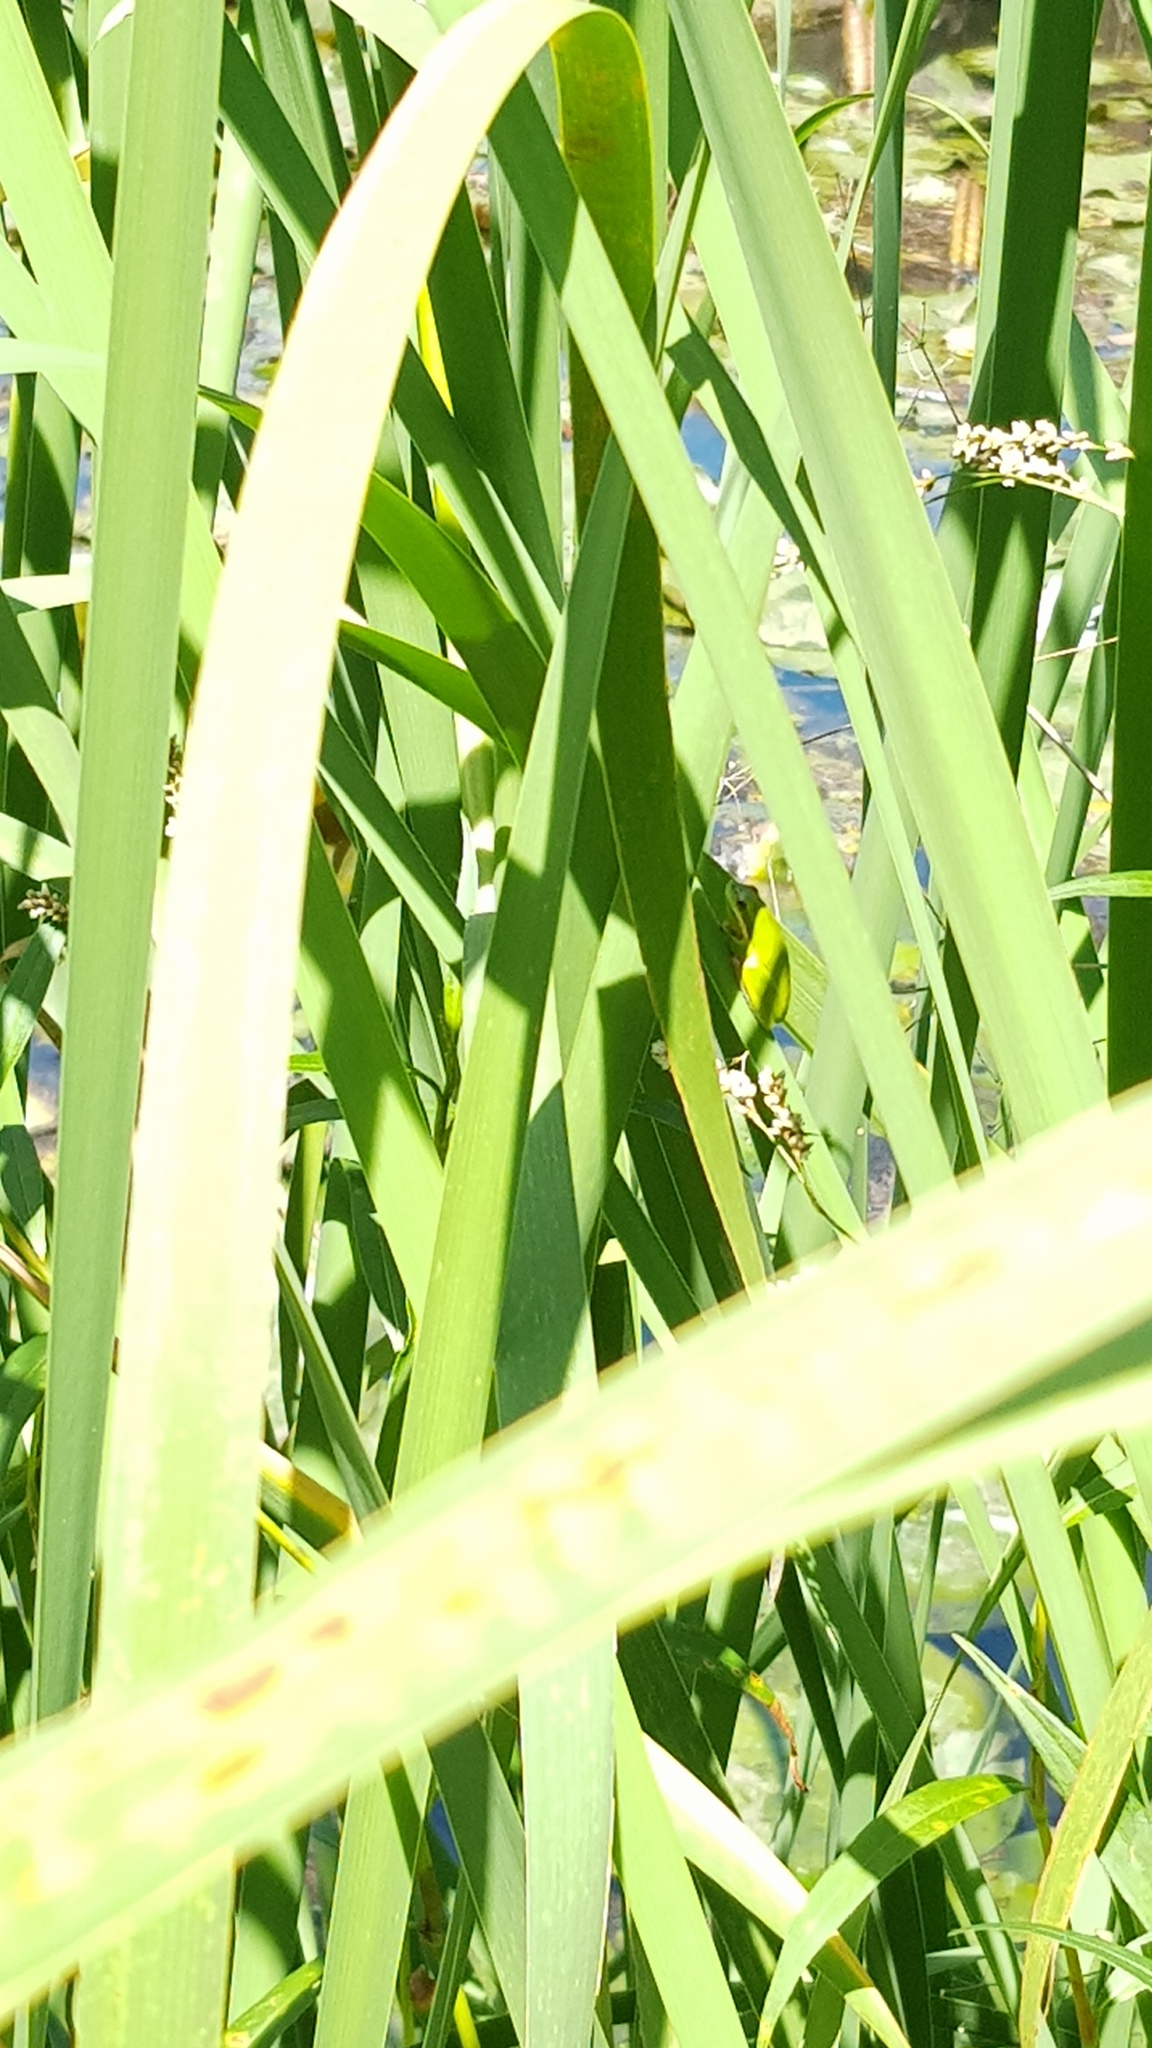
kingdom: Animalia
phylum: Chordata
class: Amphibia
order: Anura
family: Pelodryadidae
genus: Litoria
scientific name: Litoria fallax
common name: Eastern dwarf treefrog
